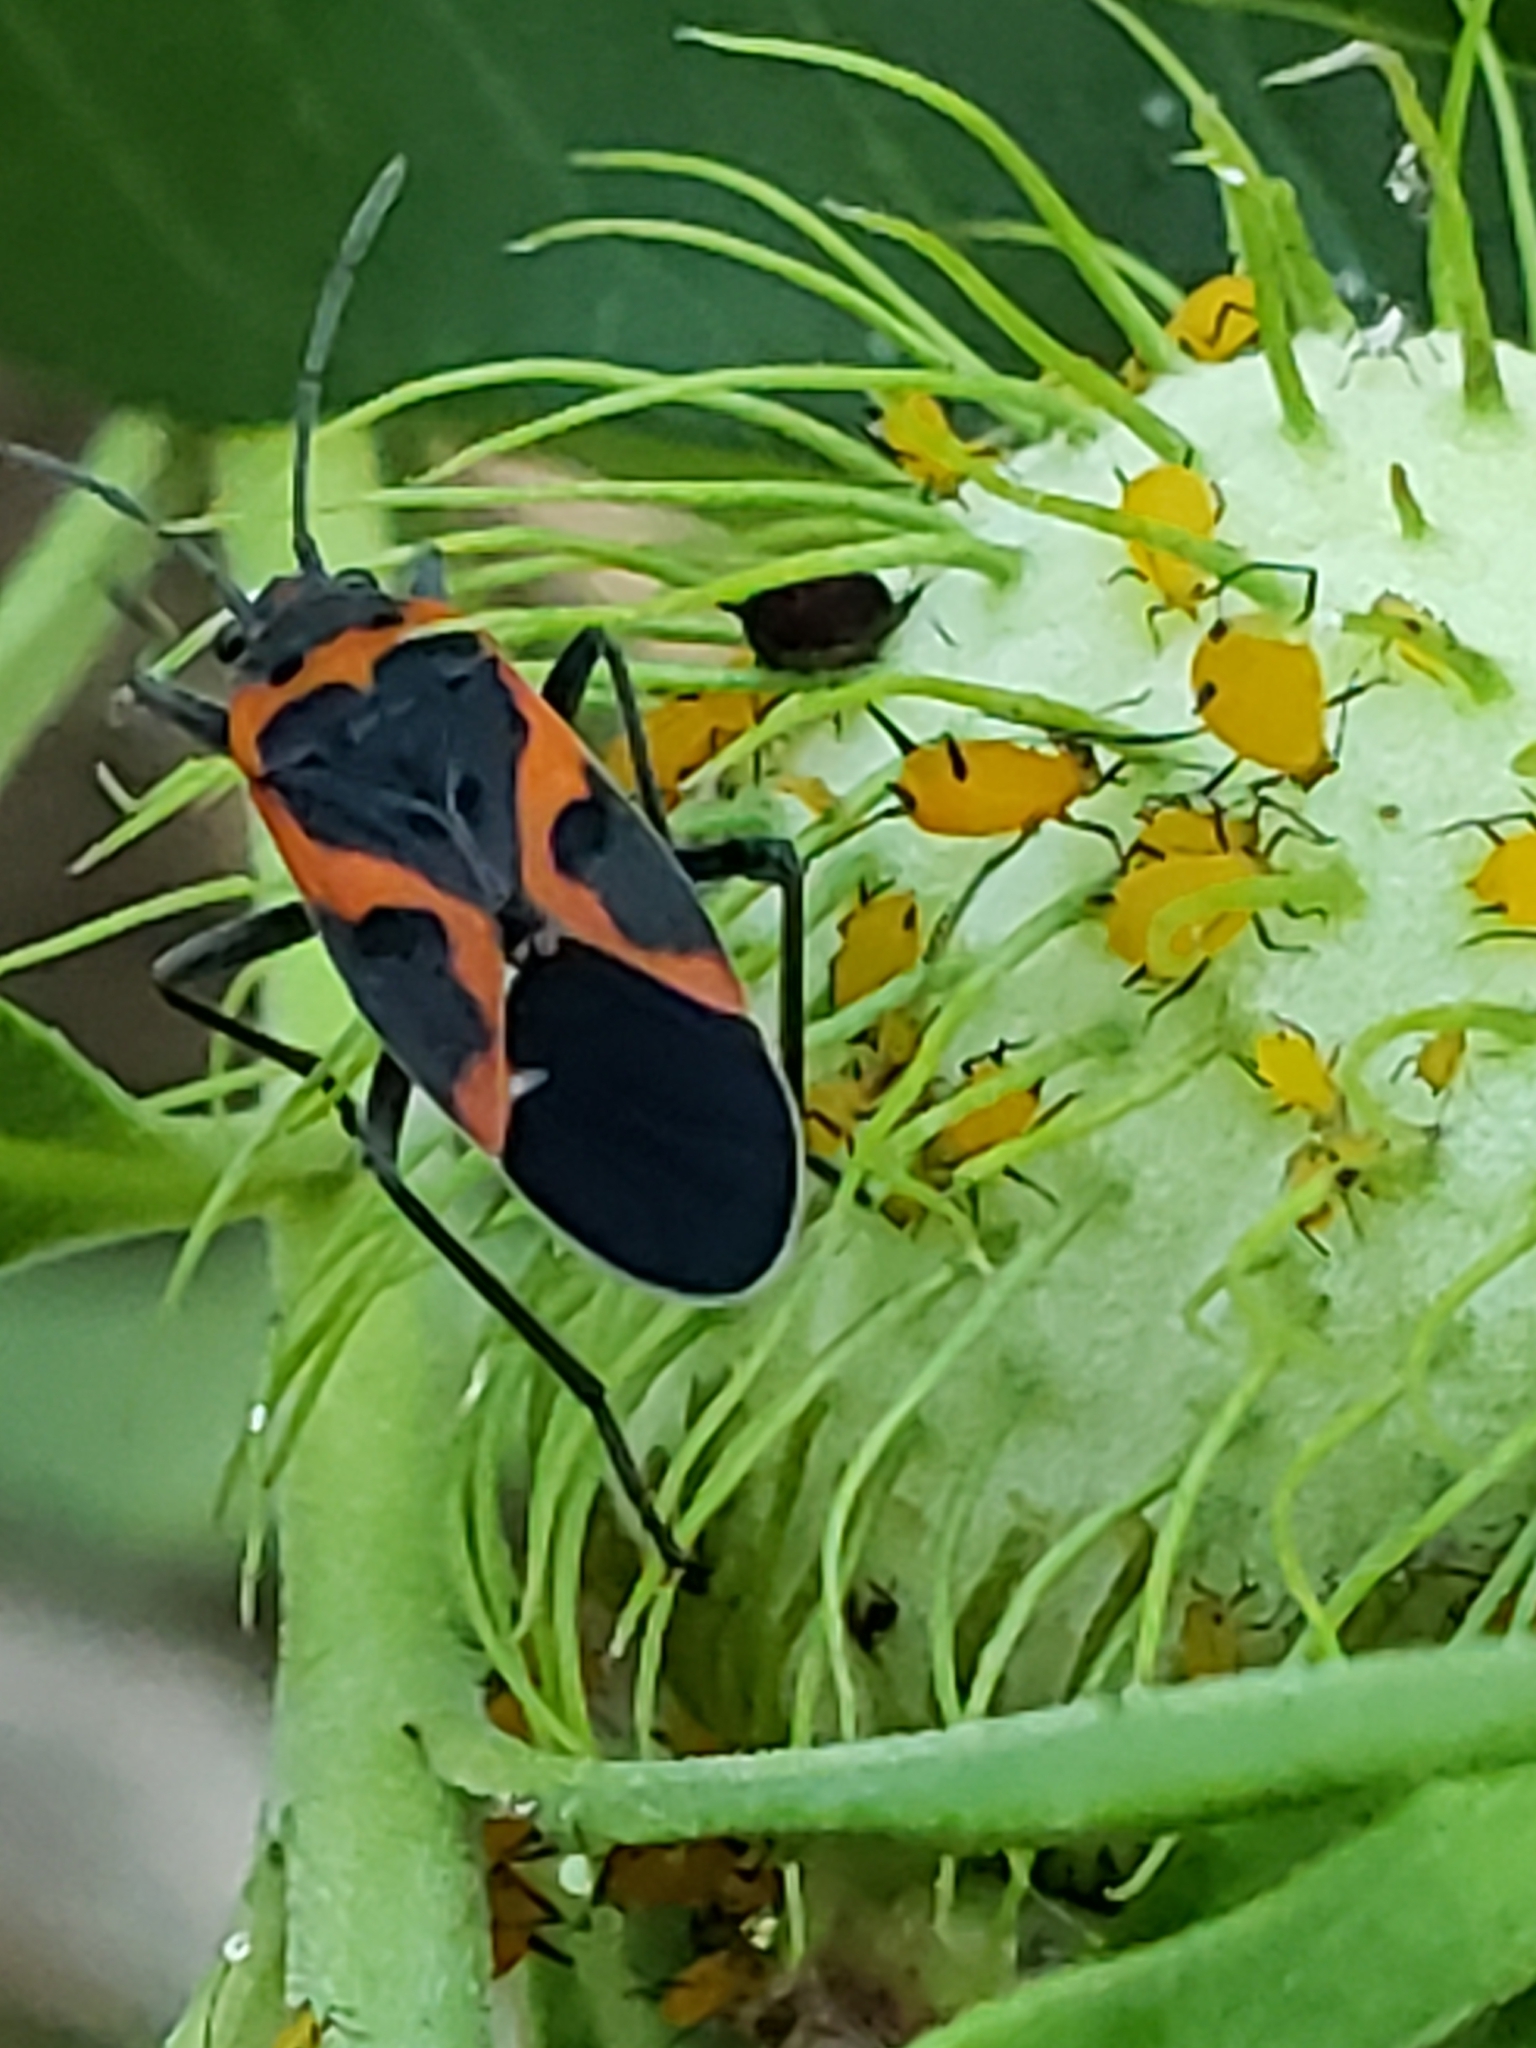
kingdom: Animalia
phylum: Arthropoda
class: Insecta
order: Hemiptera
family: Lygaeidae
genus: Lygaeus
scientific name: Lygaeus kalmii
